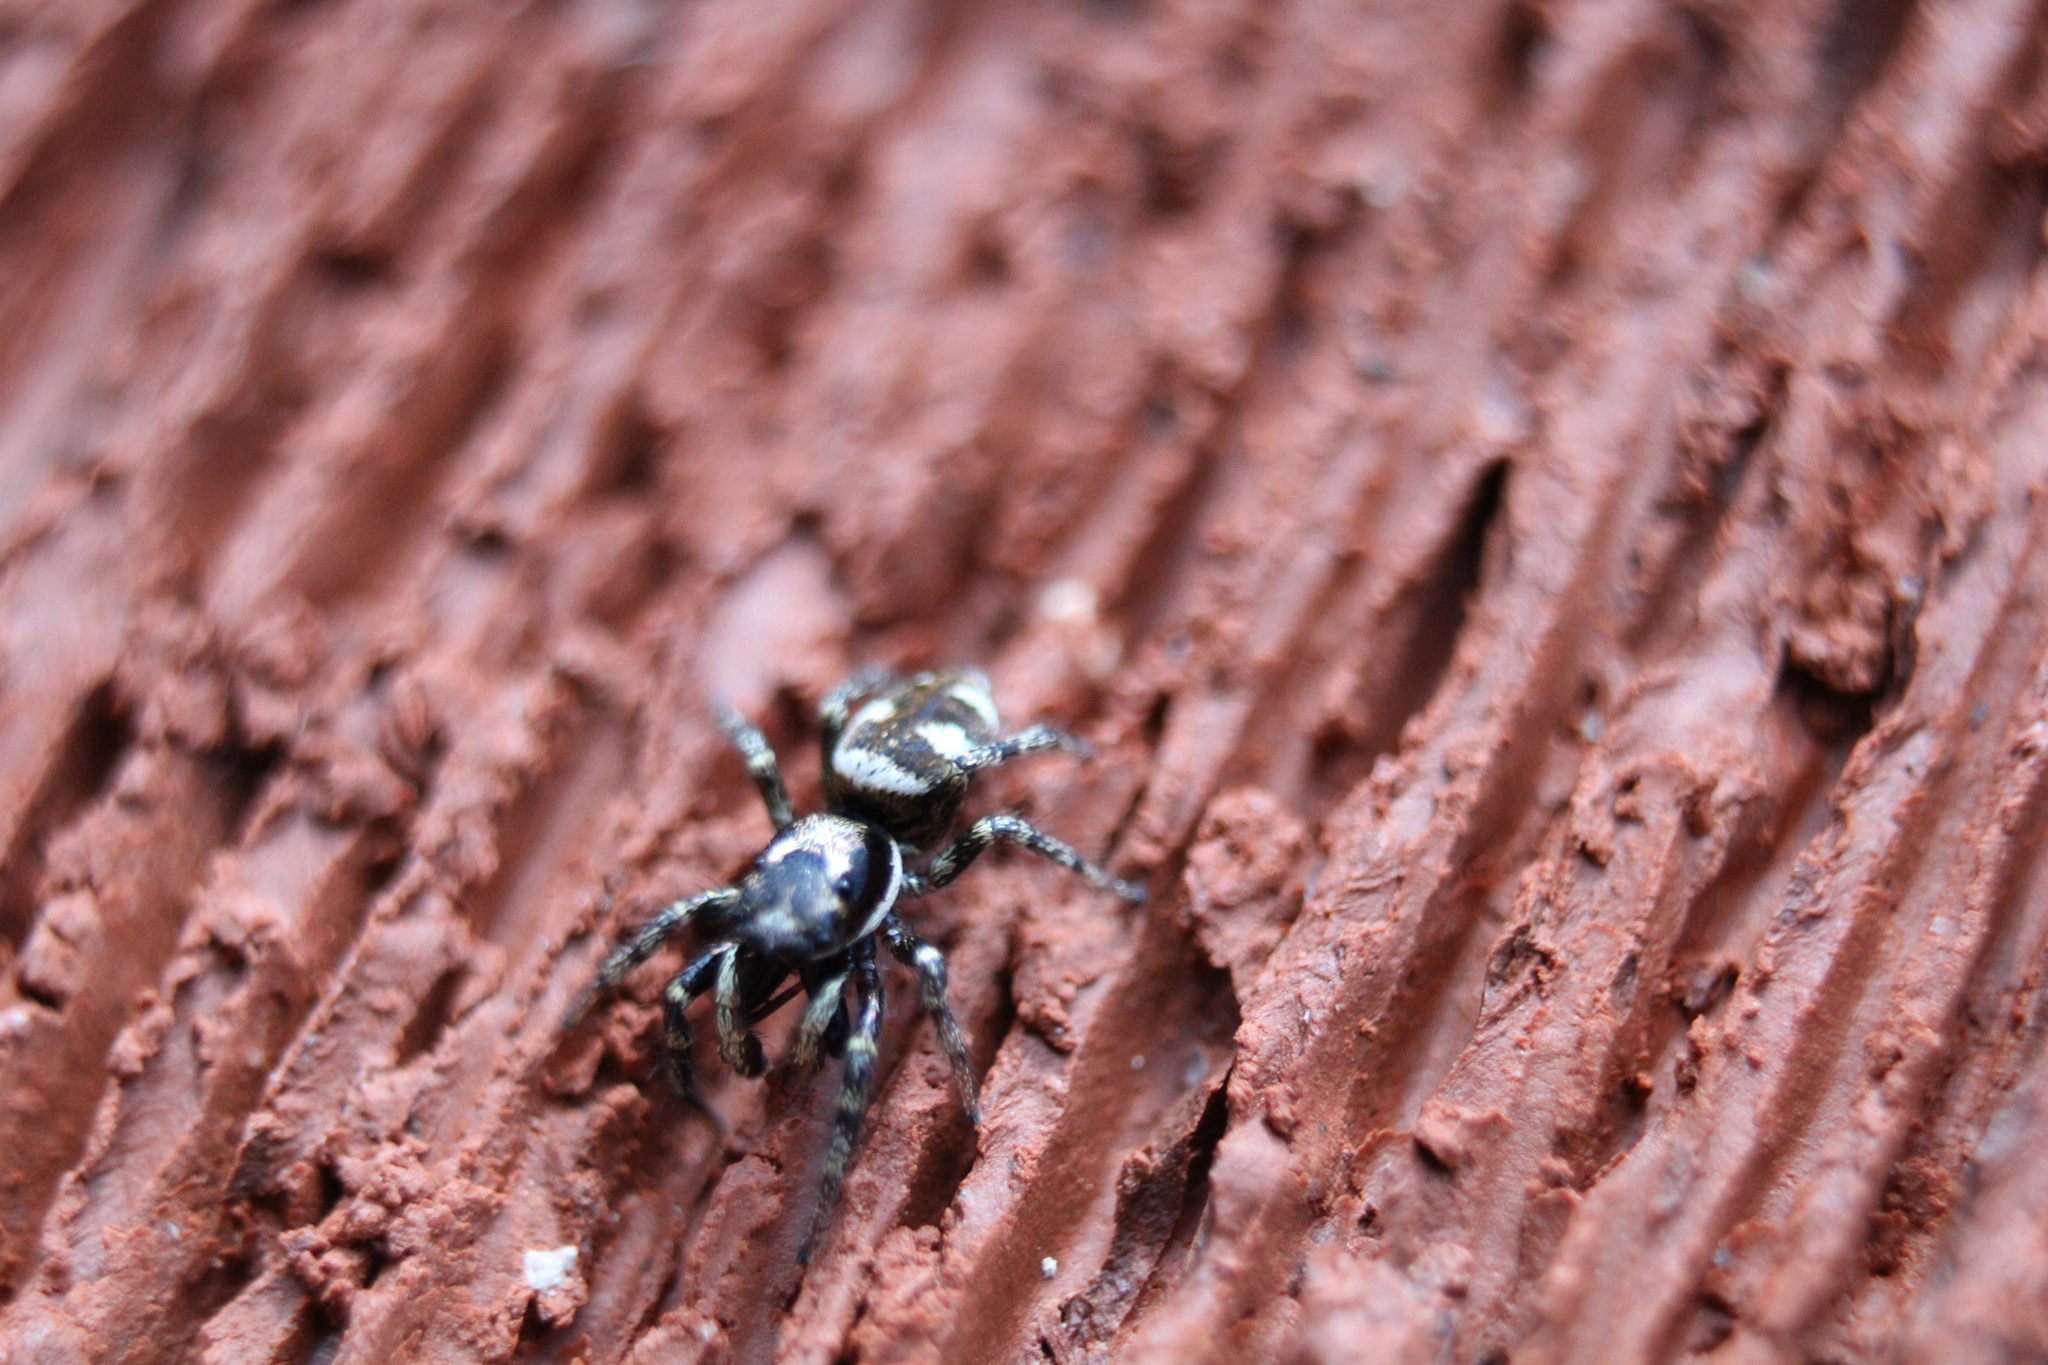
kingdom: Animalia
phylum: Arthropoda
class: Arachnida
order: Araneae
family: Salticidae
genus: Salticus
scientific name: Salticus scenicus
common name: Zebra jumper
